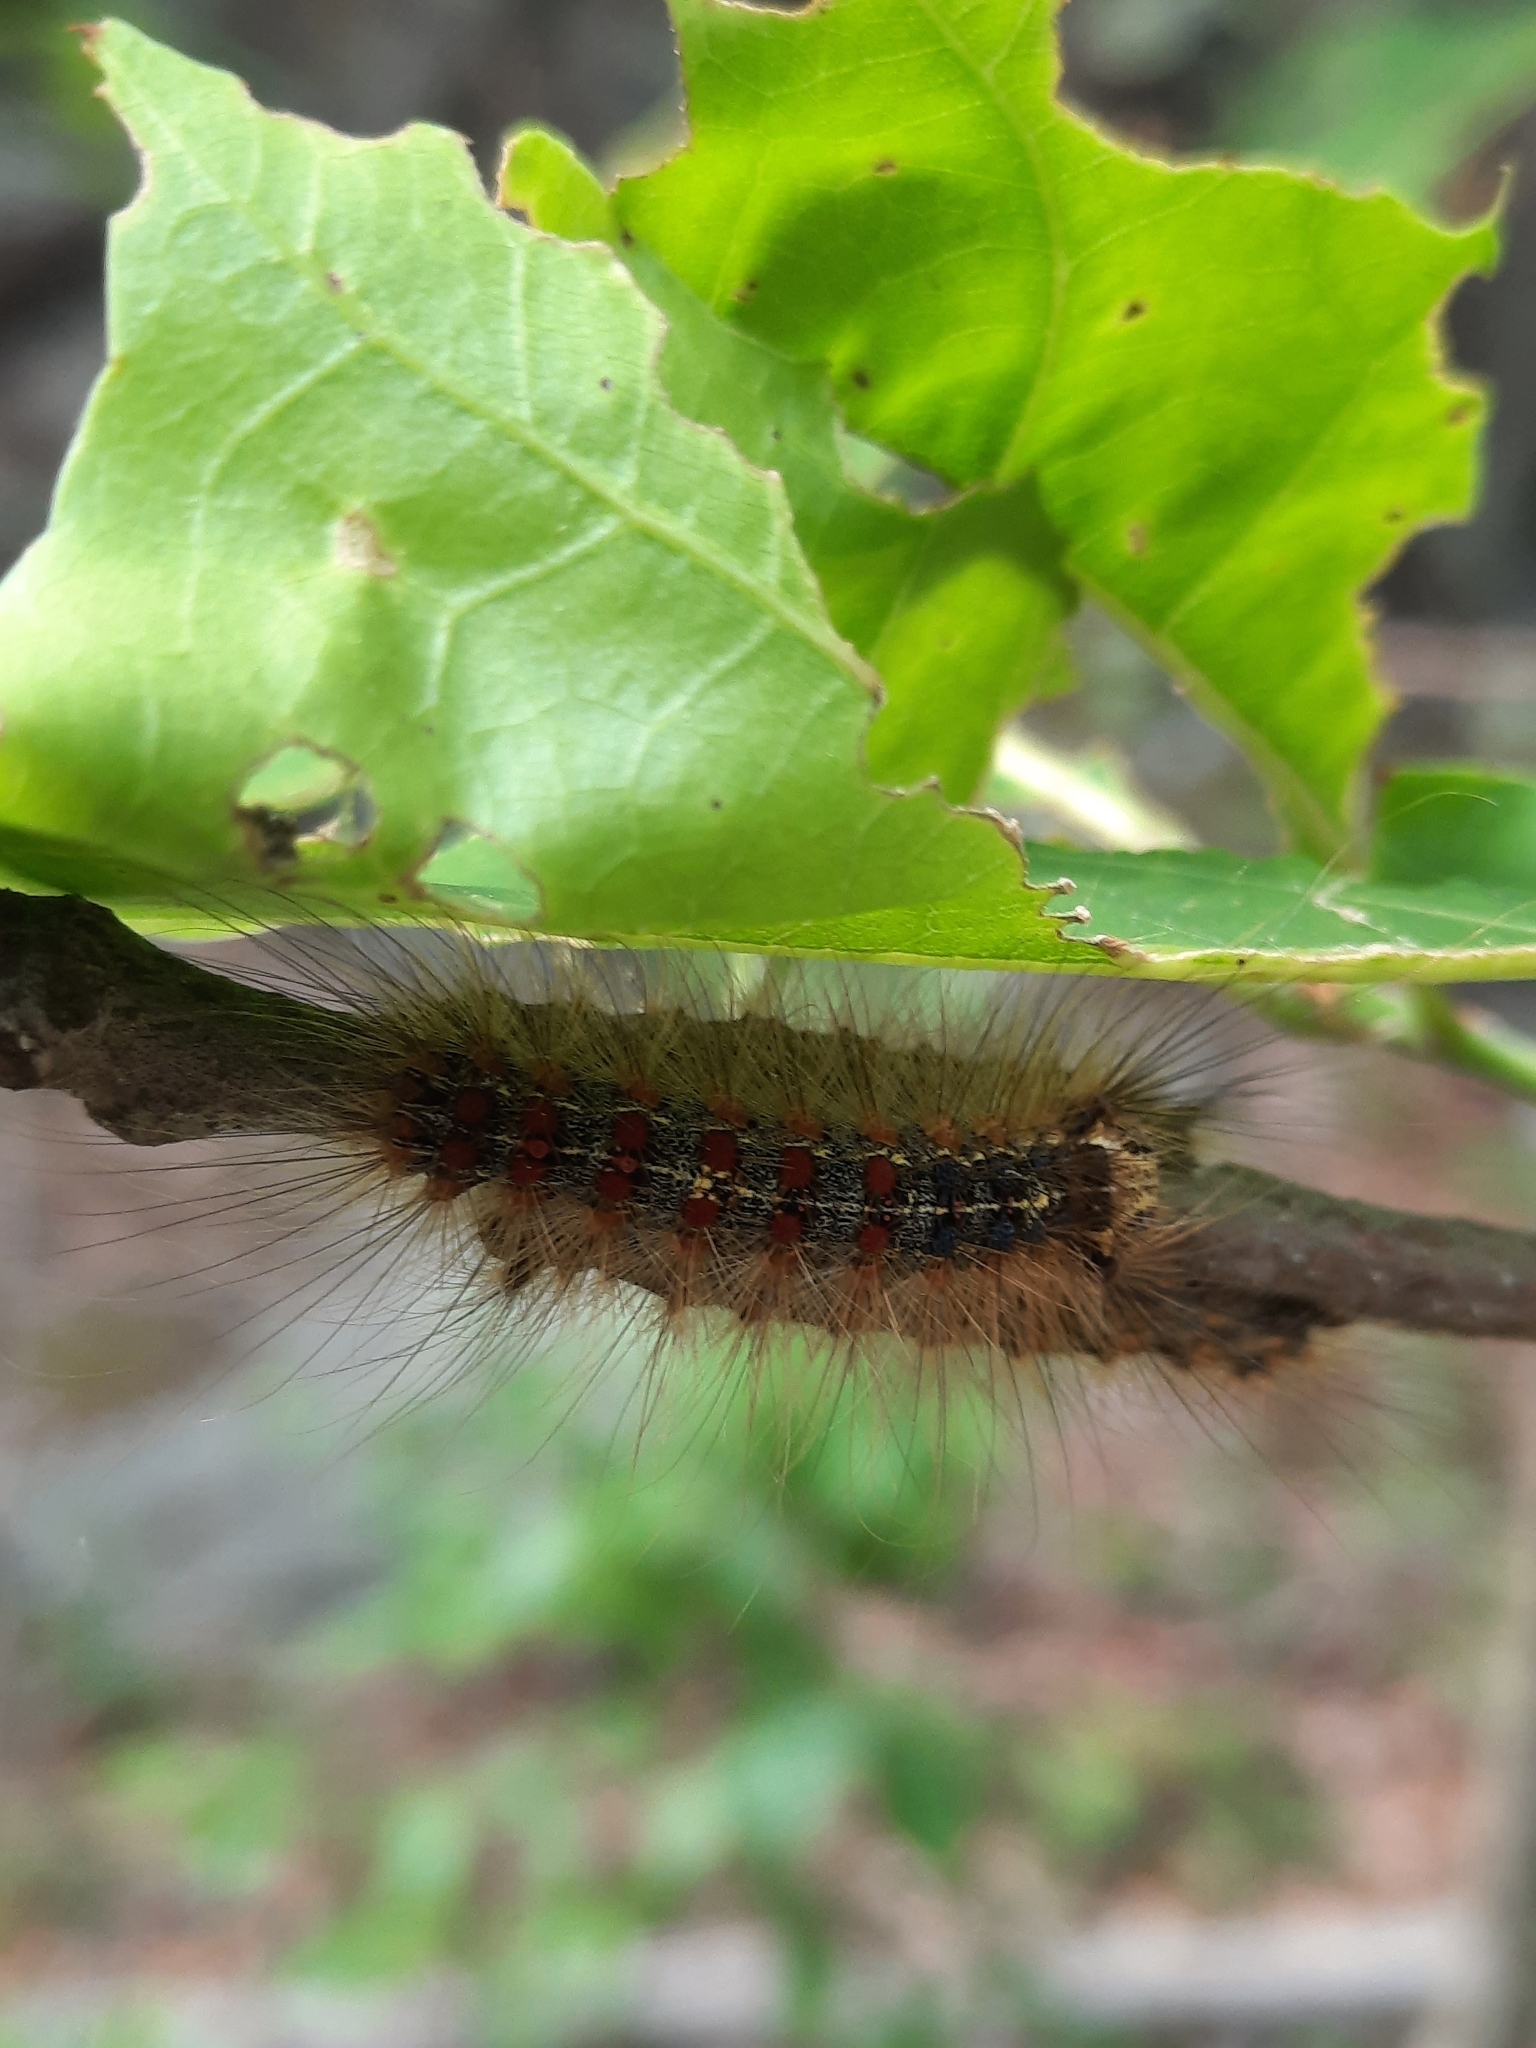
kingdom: Animalia
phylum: Arthropoda
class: Insecta
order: Lepidoptera
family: Erebidae
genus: Lymantria
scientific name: Lymantria dispar
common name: Gypsy moth
